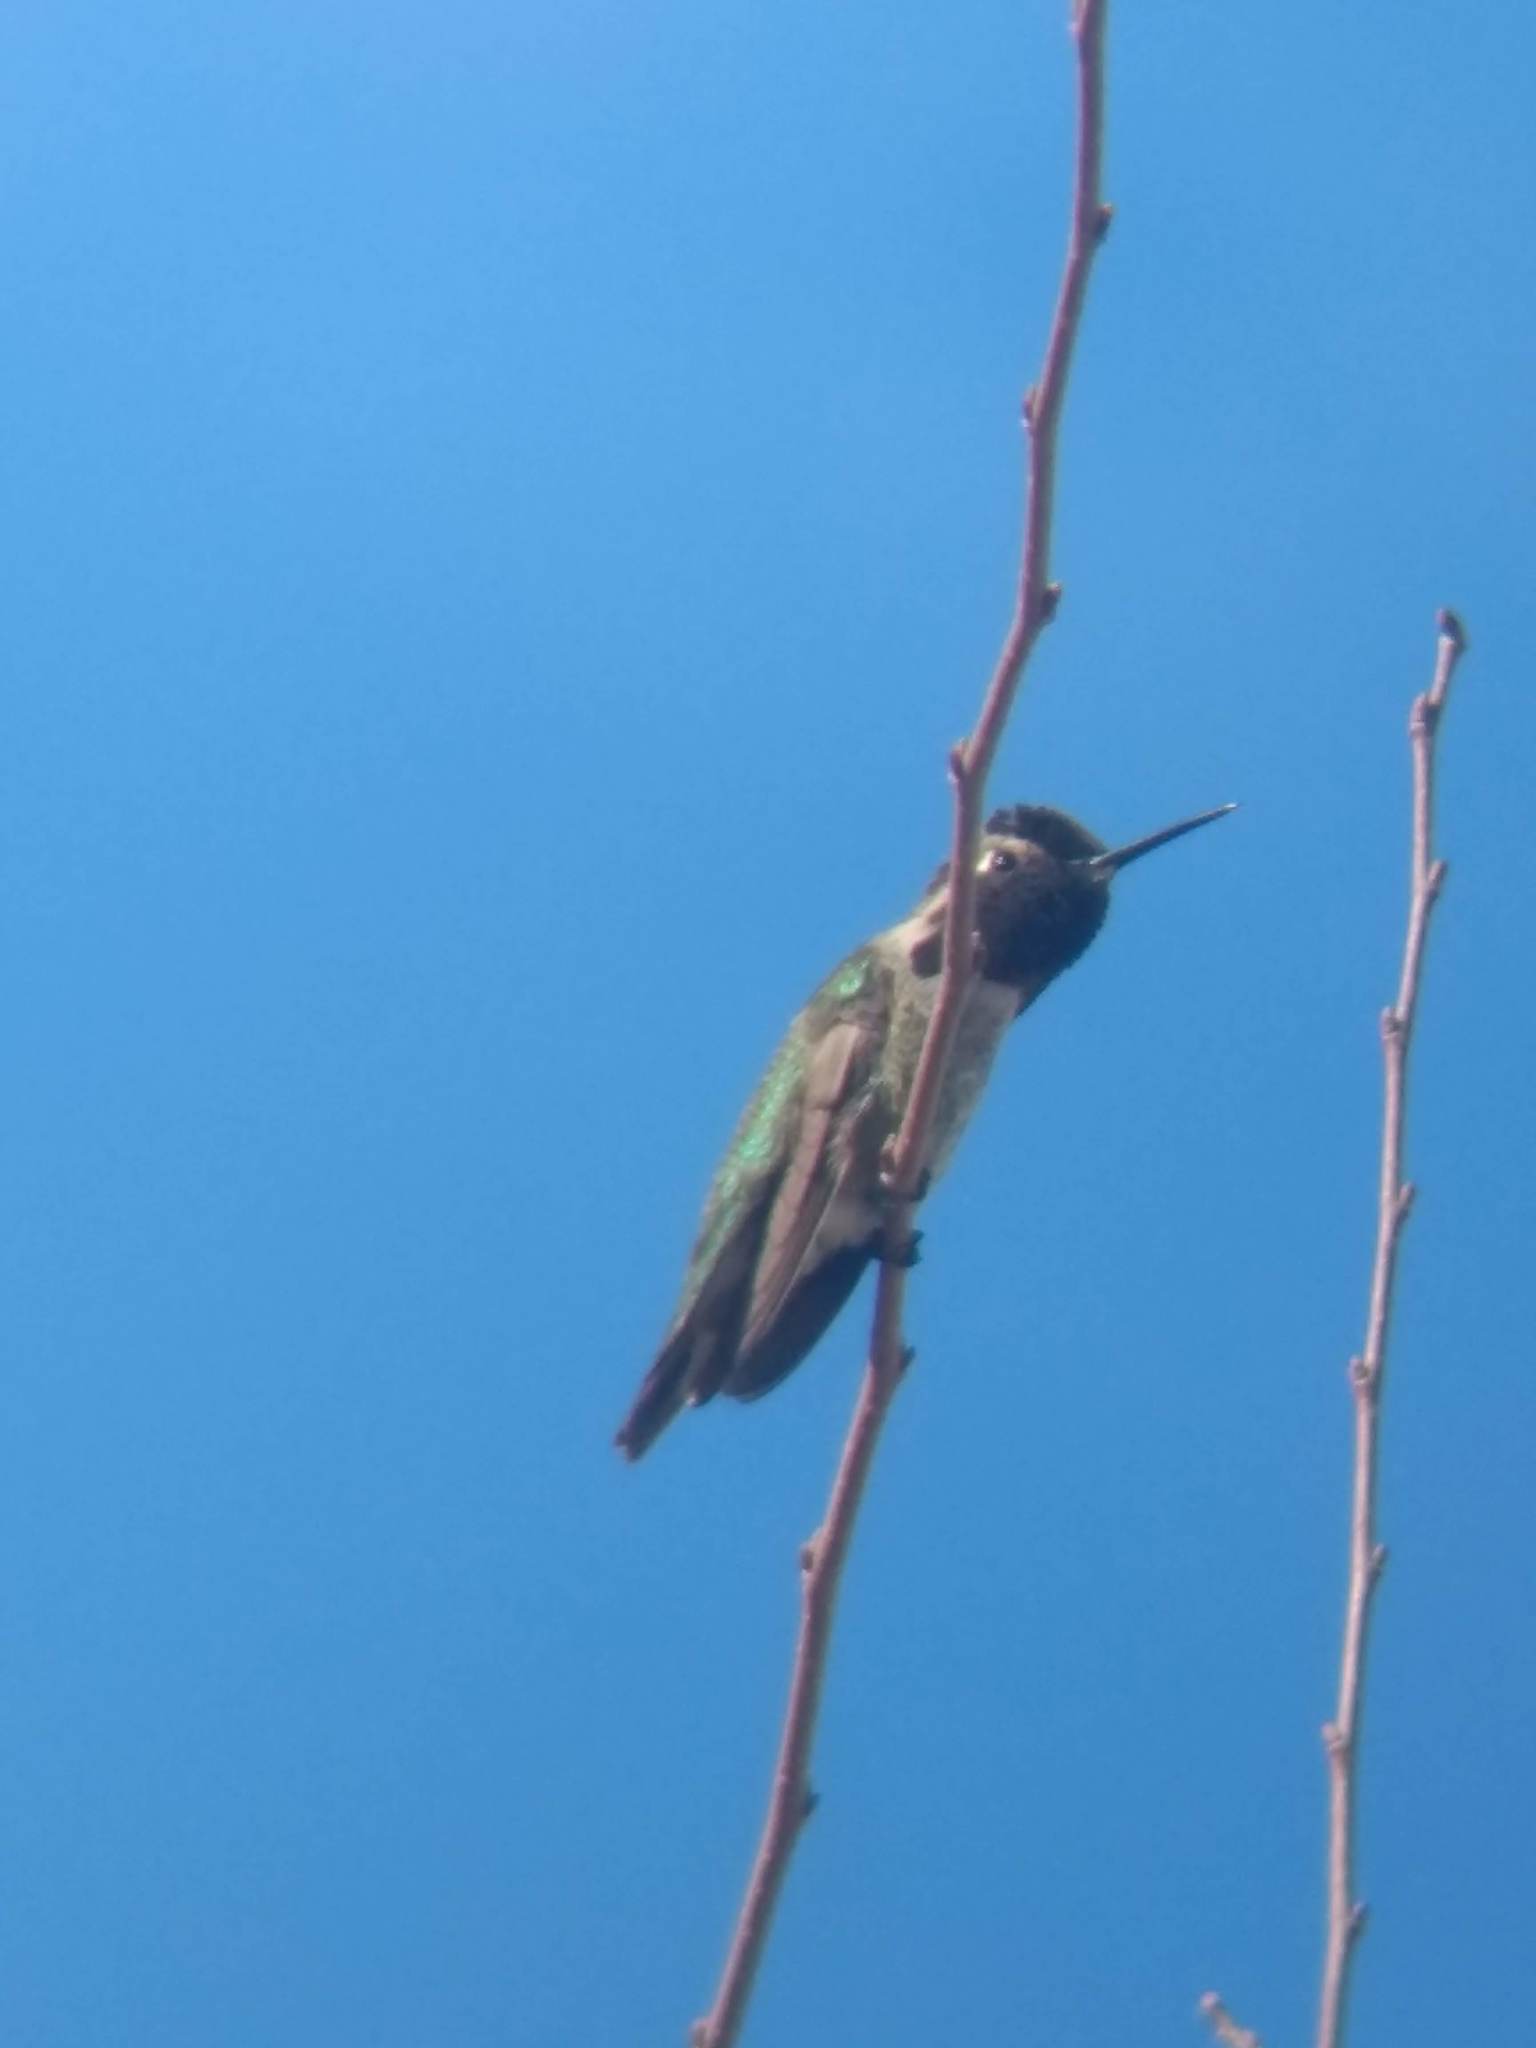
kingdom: Animalia
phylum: Chordata
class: Aves
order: Apodiformes
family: Trochilidae
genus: Calypte
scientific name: Calypte anna
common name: Anna's hummingbird
